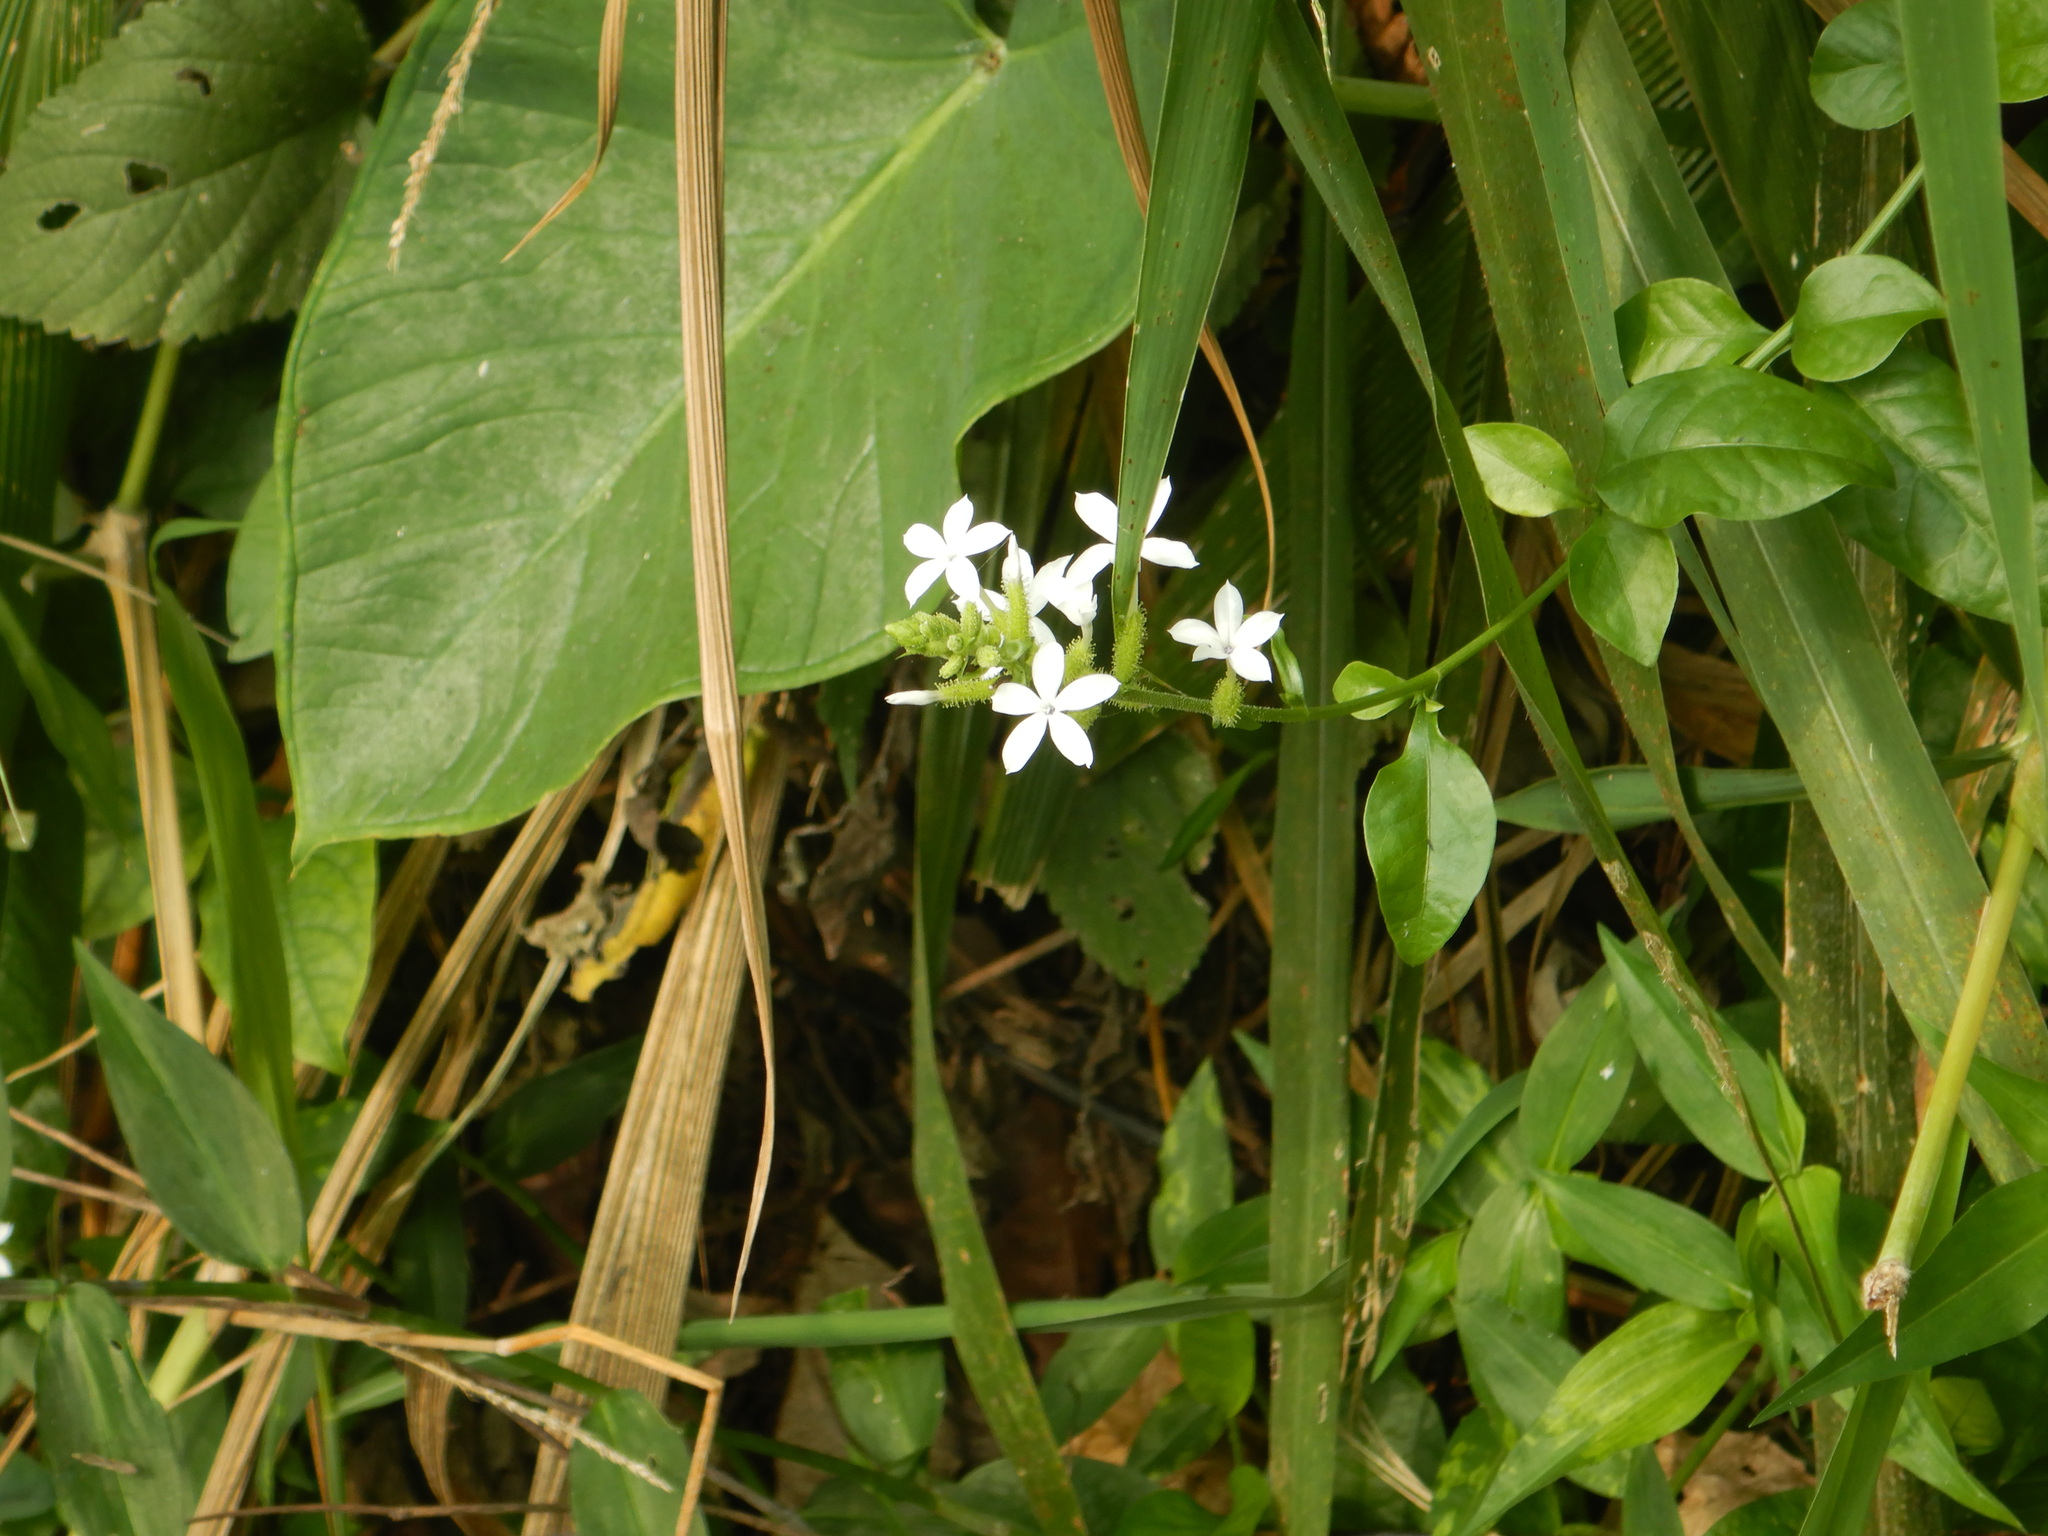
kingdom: Plantae
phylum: Tracheophyta
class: Magnoliopsida
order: Caryophyllales
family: Plumbaginaceae
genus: Plumbago
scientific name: Plumbago zeylanica
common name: Doctorbush
